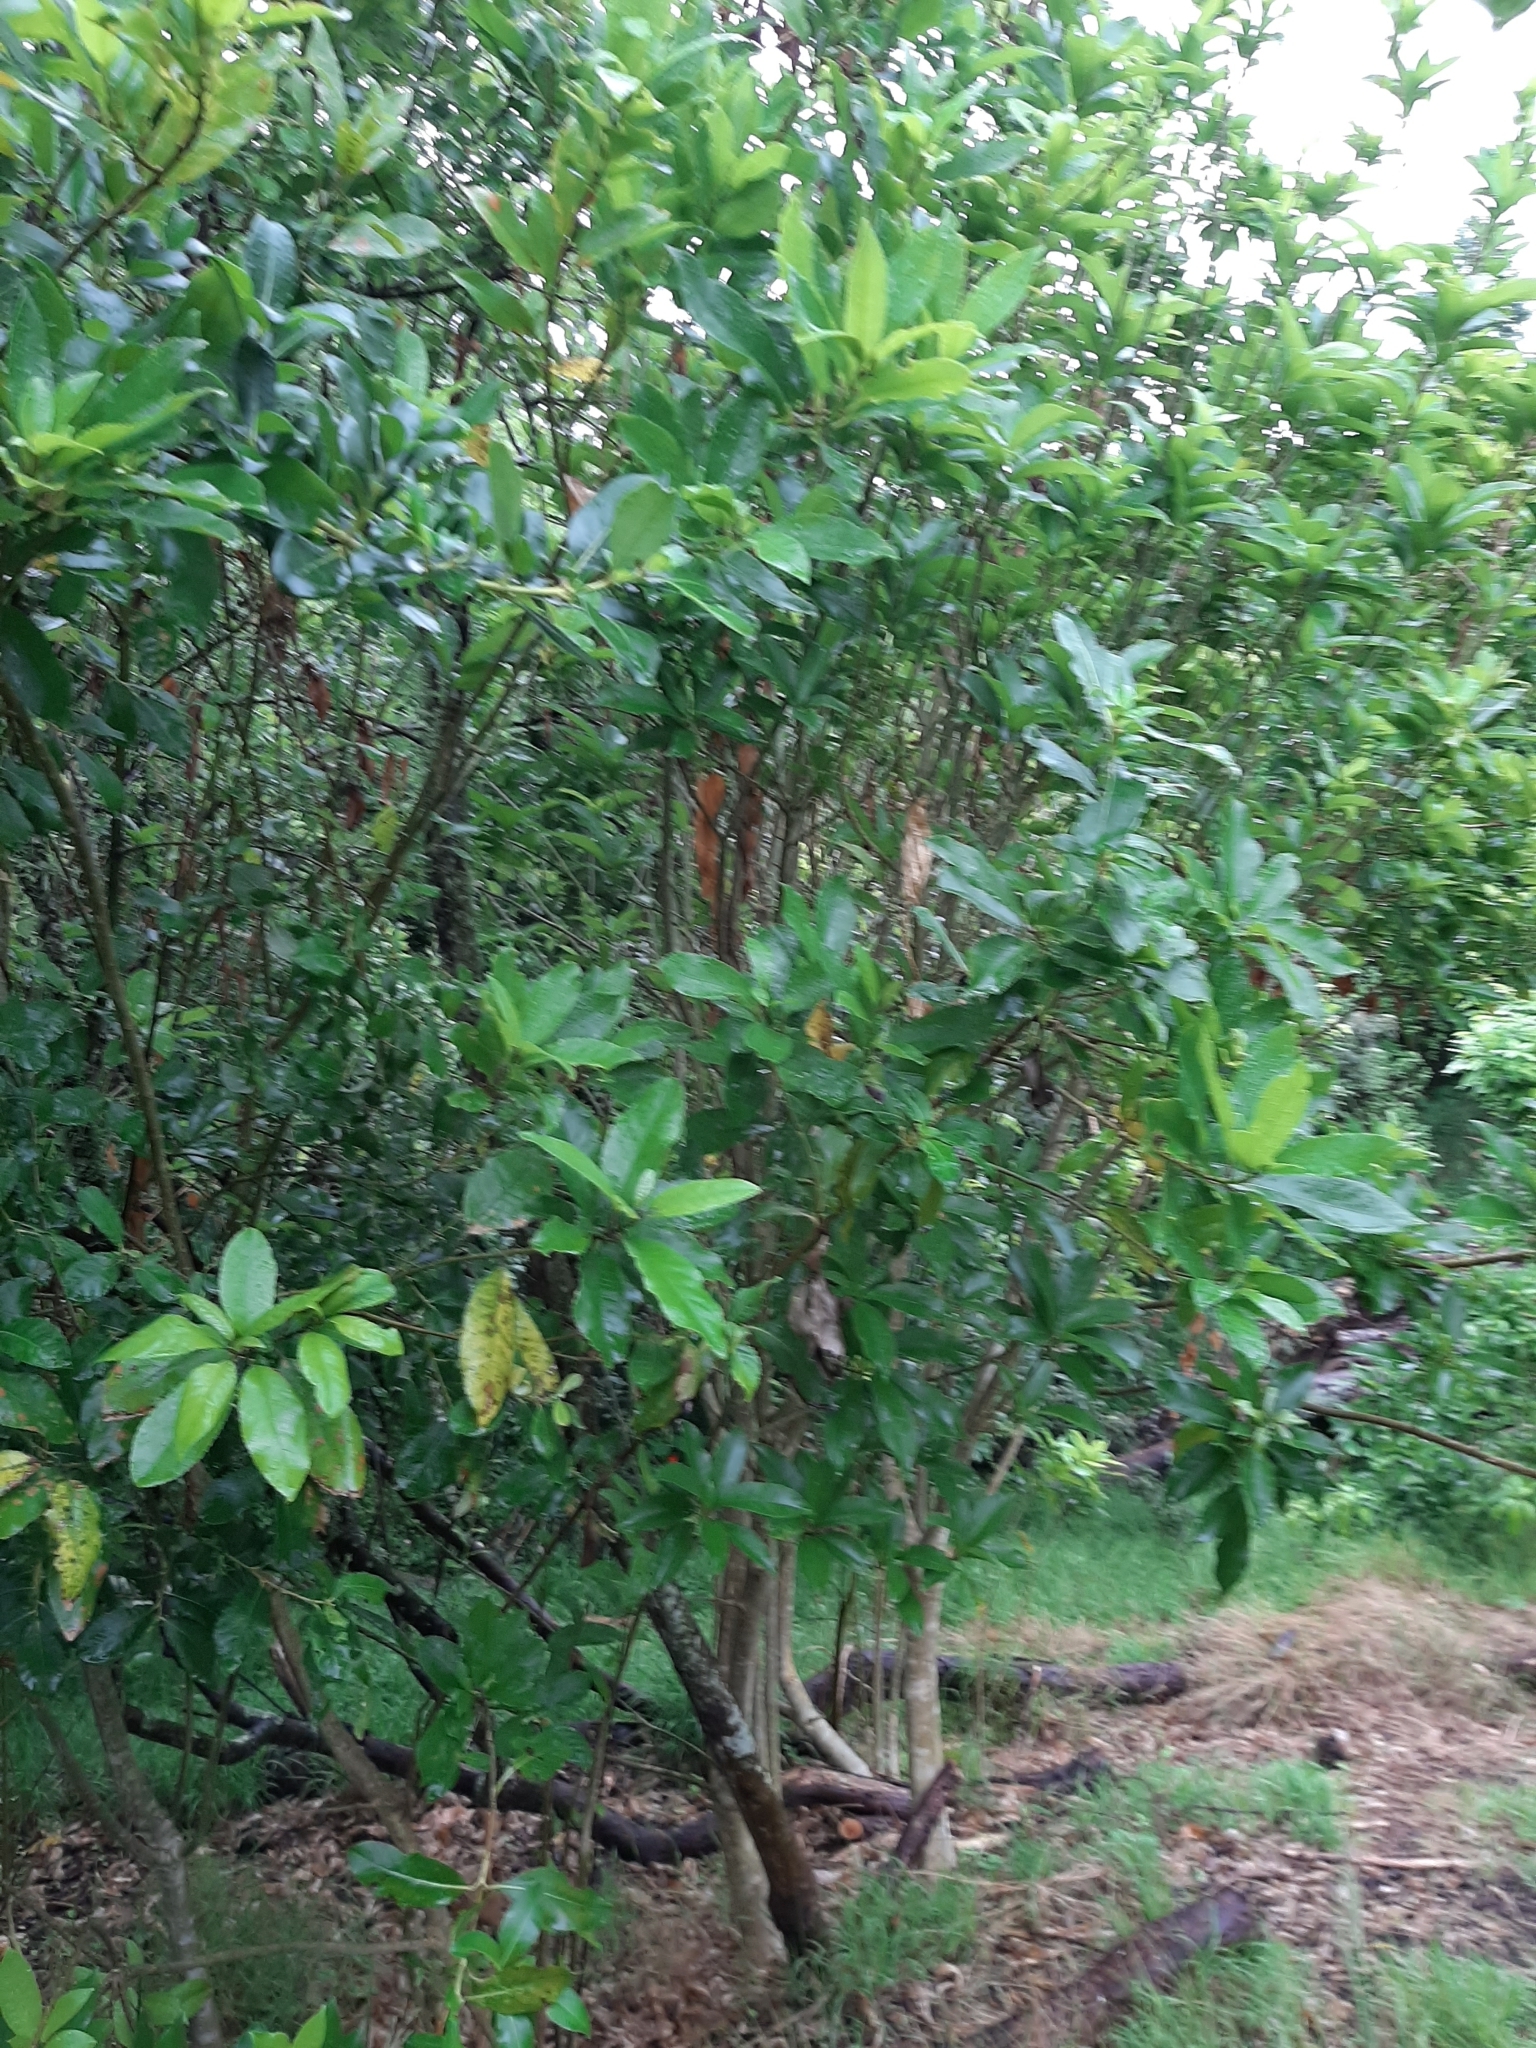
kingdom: Plantae
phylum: Tracheophyta
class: Magnoliopsida
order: Malpighiales
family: Violaceae
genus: Melicytus
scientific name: Melicytus ramiflorus
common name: Mahoe
